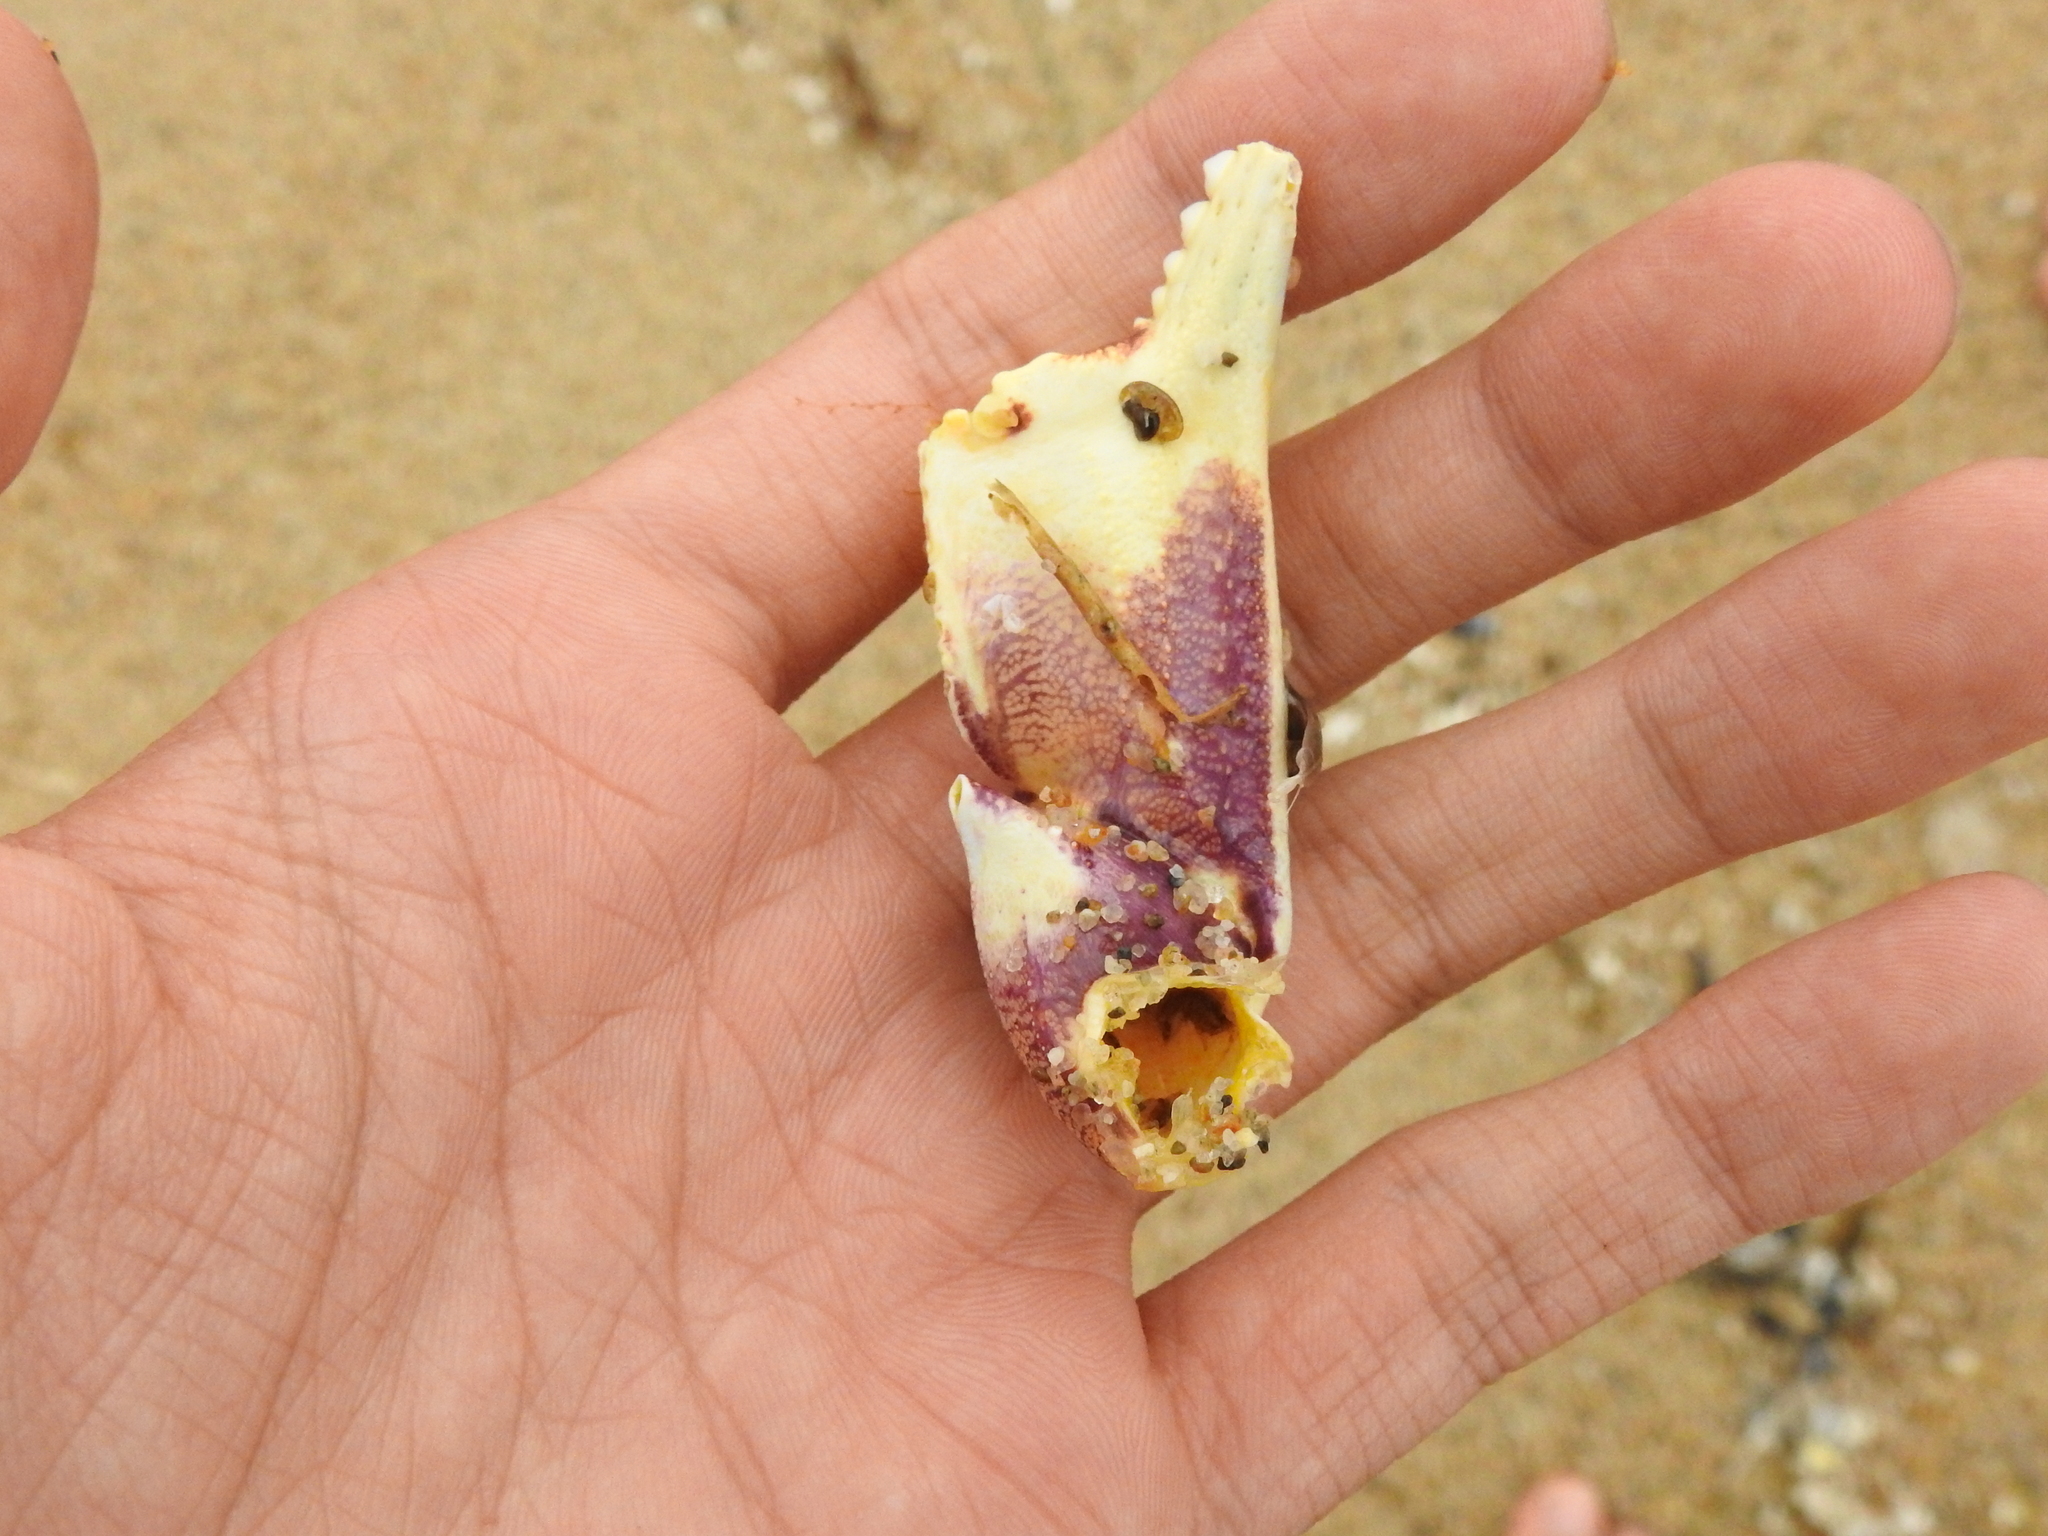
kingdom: Animalia
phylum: Arthropoda
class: Malacostraca
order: Decapoda
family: Cancridae
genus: Metacarcinus
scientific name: Metacarcinus magister
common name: Californian crab
